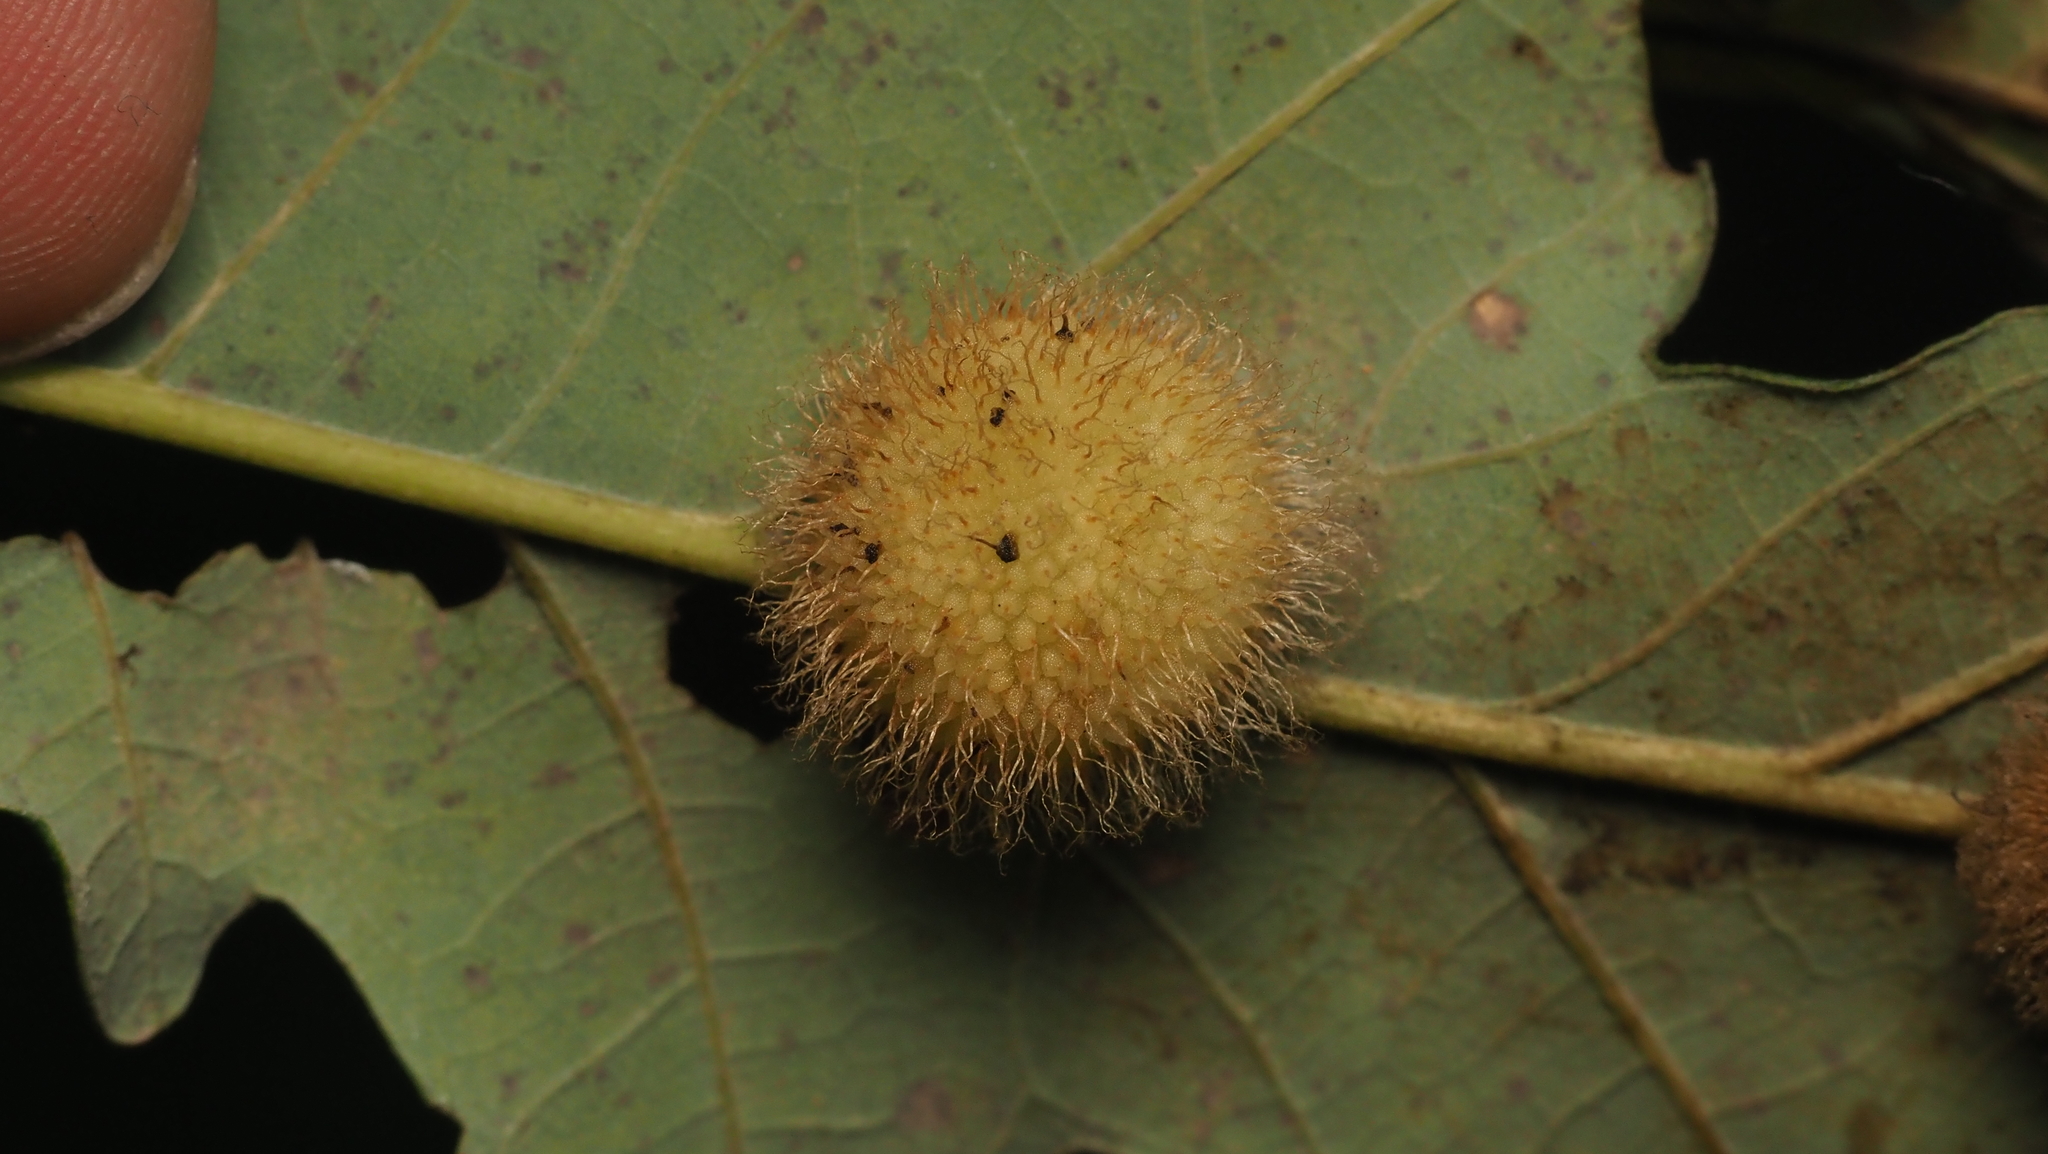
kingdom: Animalia
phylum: Arthropoda
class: Insecta
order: Hymenoptera
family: Cynipidae
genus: Acraspis
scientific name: Acraspis villosa
